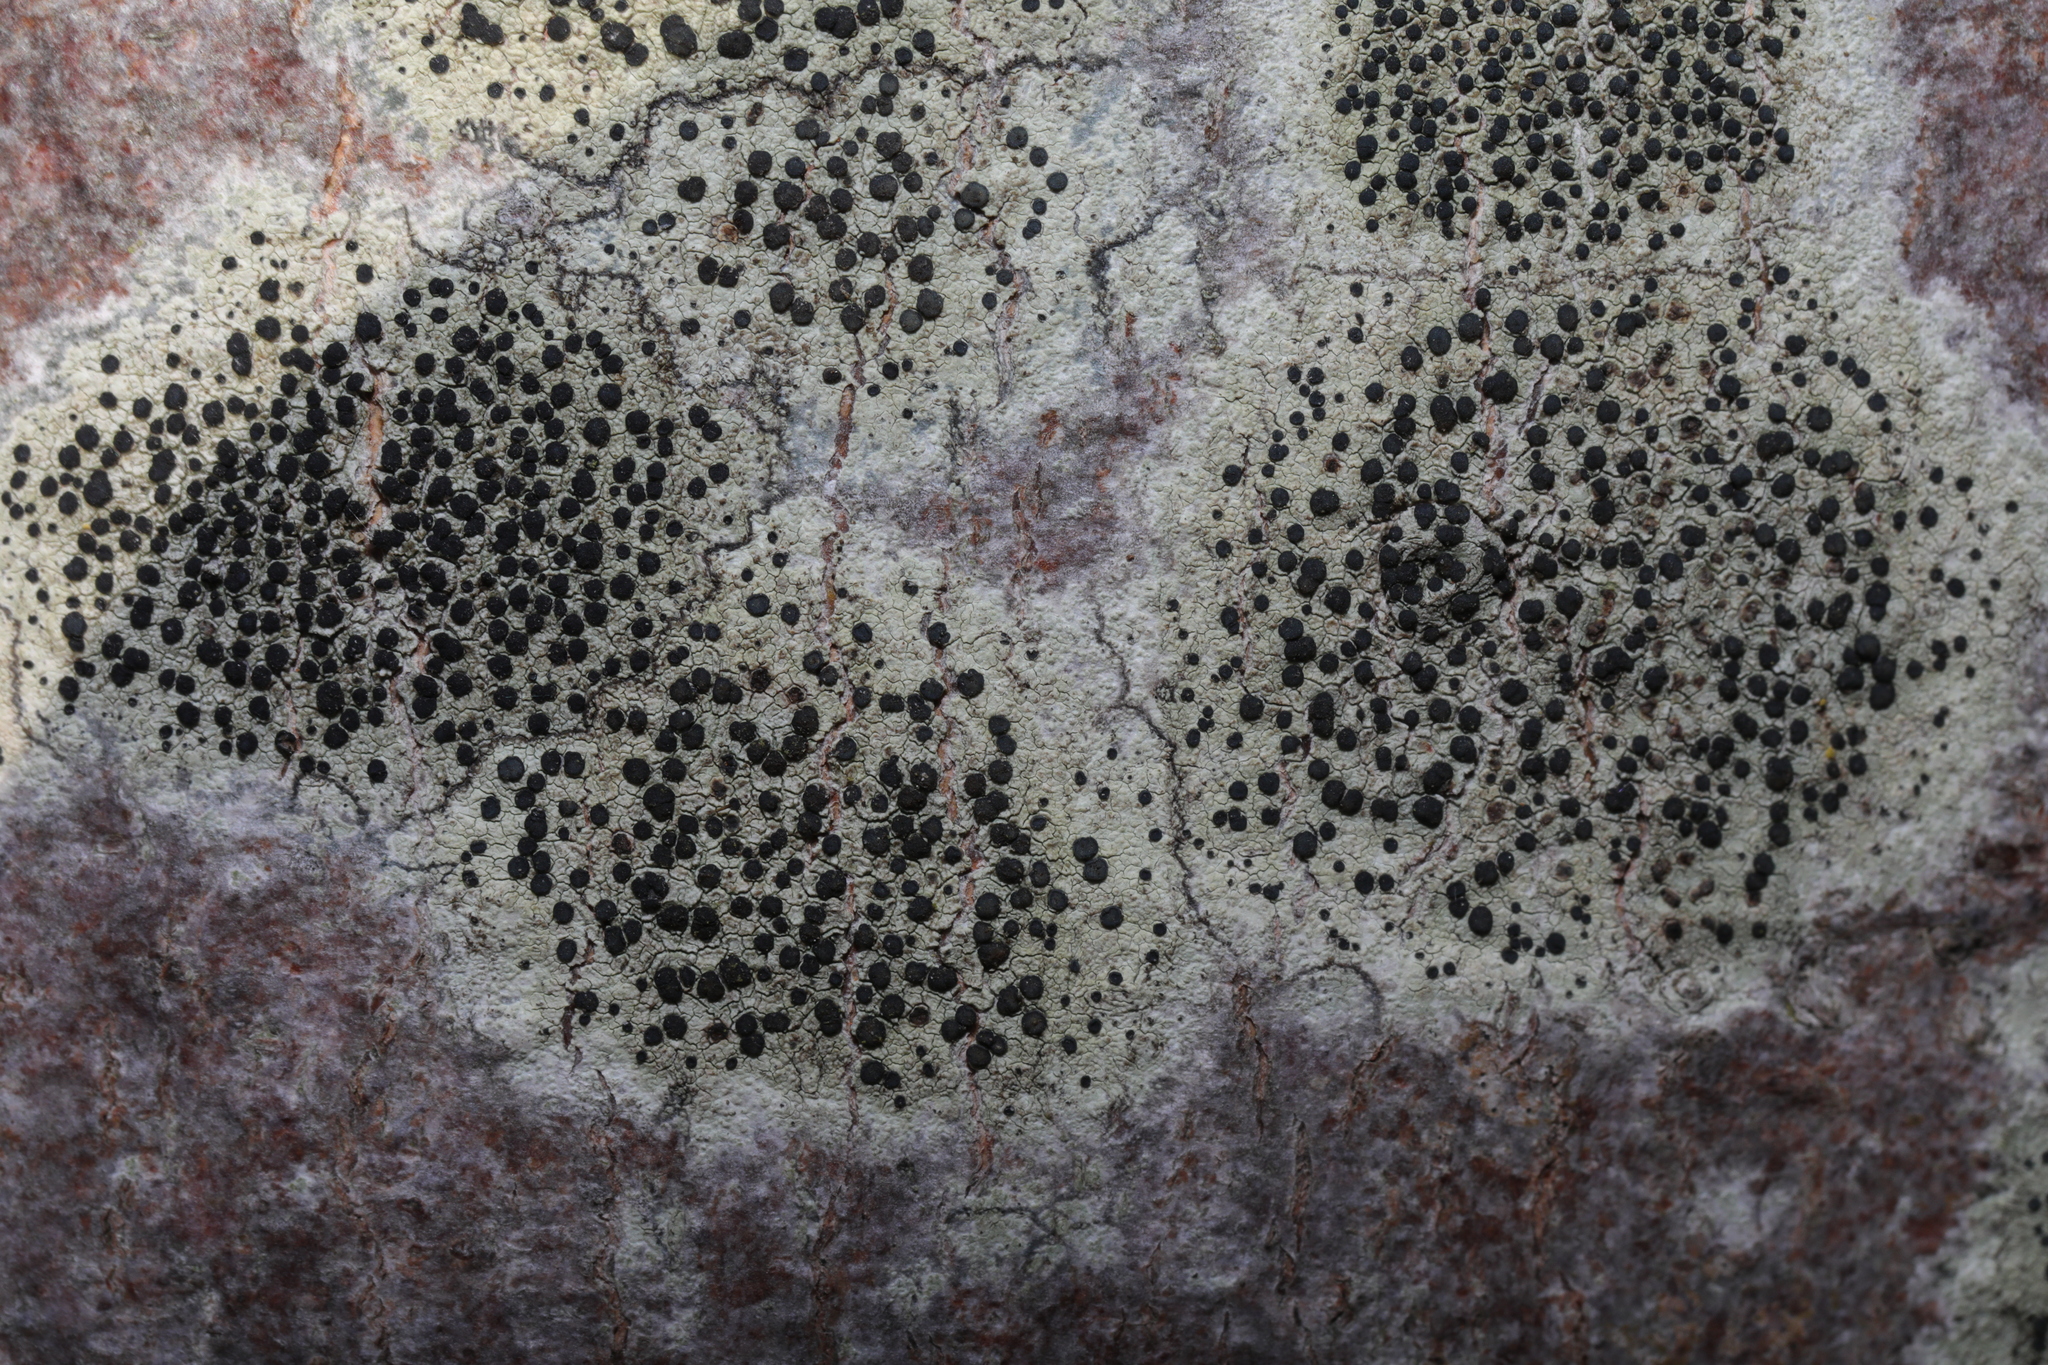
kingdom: Fungi
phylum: Ascomycota
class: Lecanoromycetes
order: Lecanorales
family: Lecanoraceae
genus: Lecidella
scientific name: Lecidella elaeochroma
